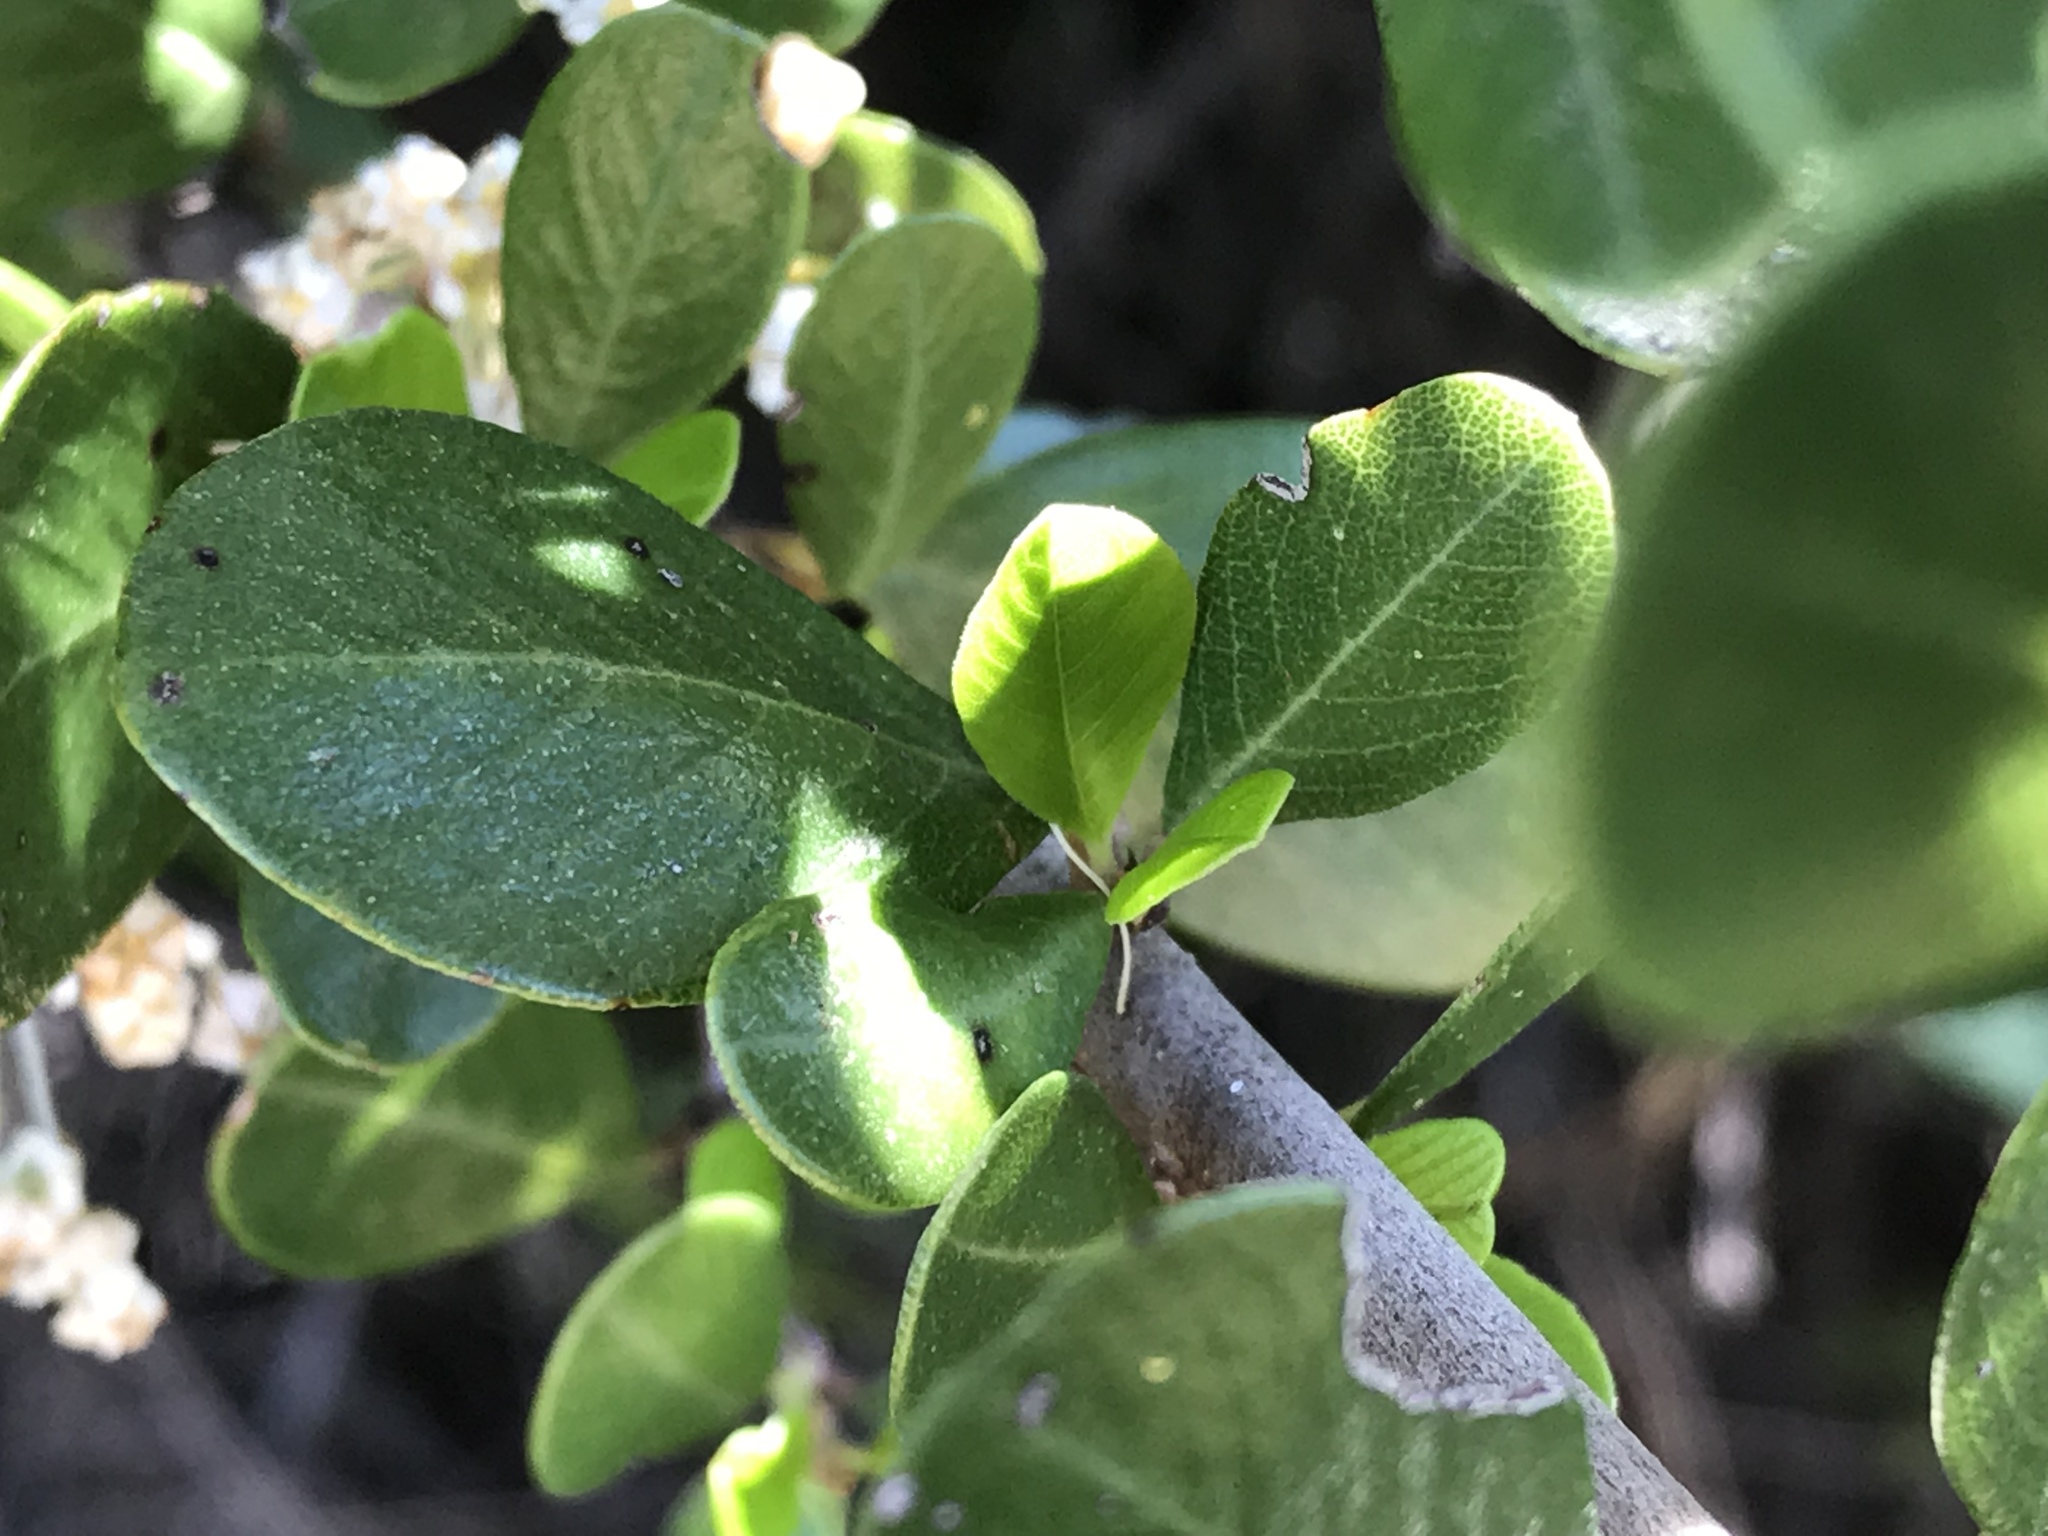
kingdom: Plantae
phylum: Tracheophyta
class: Magnoliopsida
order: Rosales
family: Rhamnaceae
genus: Ceanothus
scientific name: Ceanothus cuneatus
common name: Cuneate ceanothus
